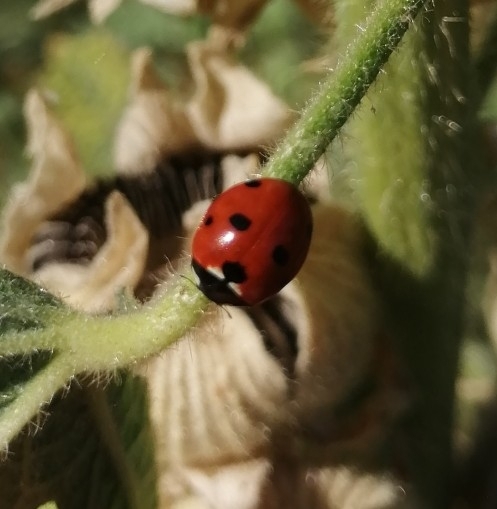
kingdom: Animalia
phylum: Arthropoda
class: Insecta
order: Coleoptera
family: Coccinellidae
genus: Coccinella
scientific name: Coccinella septempunctata
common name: Sevenspotted lady beetle
